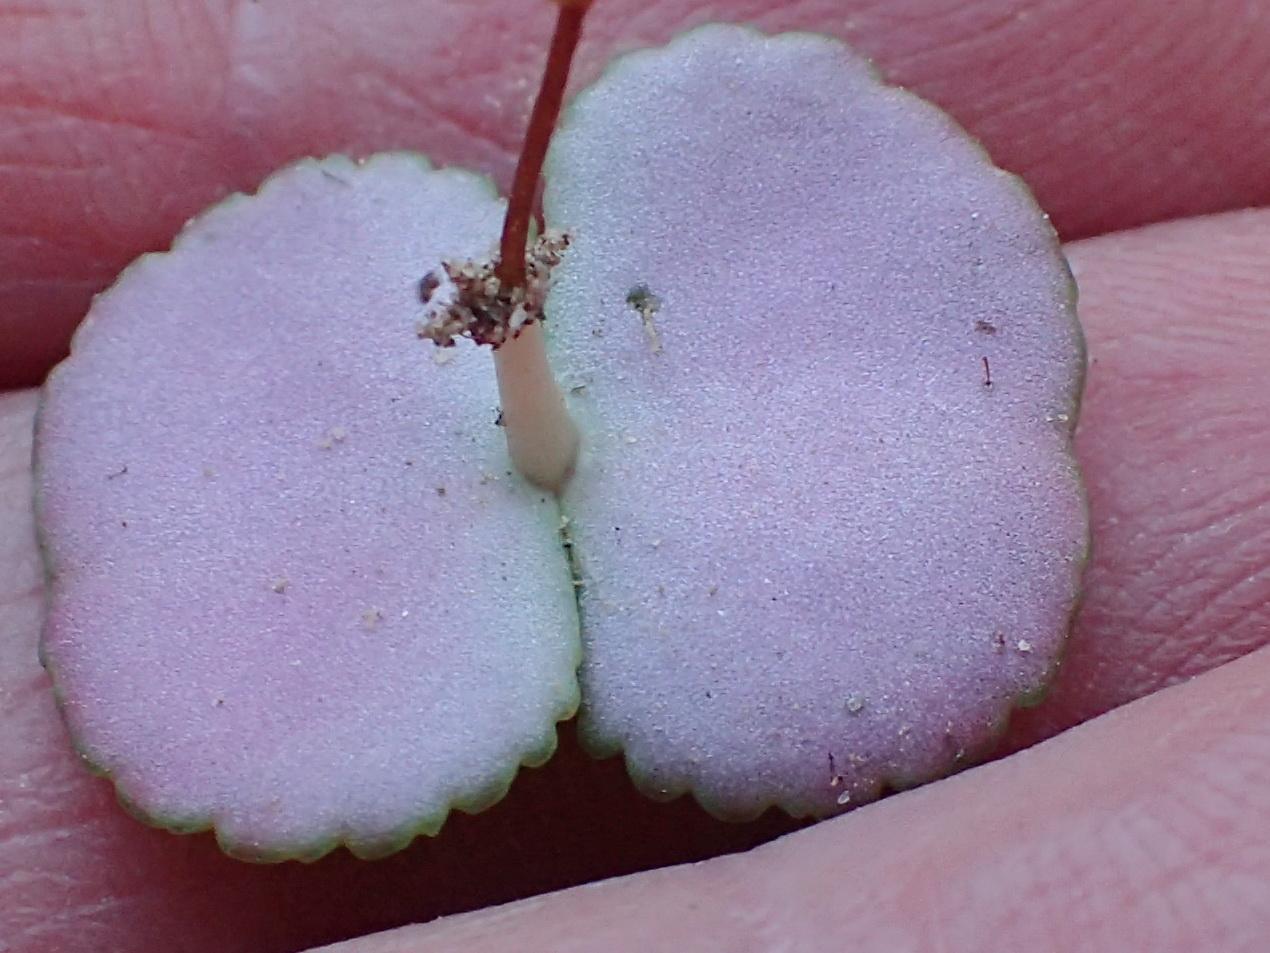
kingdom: Plantae
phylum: Tracheophyta
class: Magnoliopsida
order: Saxifragales
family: Crassulaceae
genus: Crassula
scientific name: Crassula umbella
